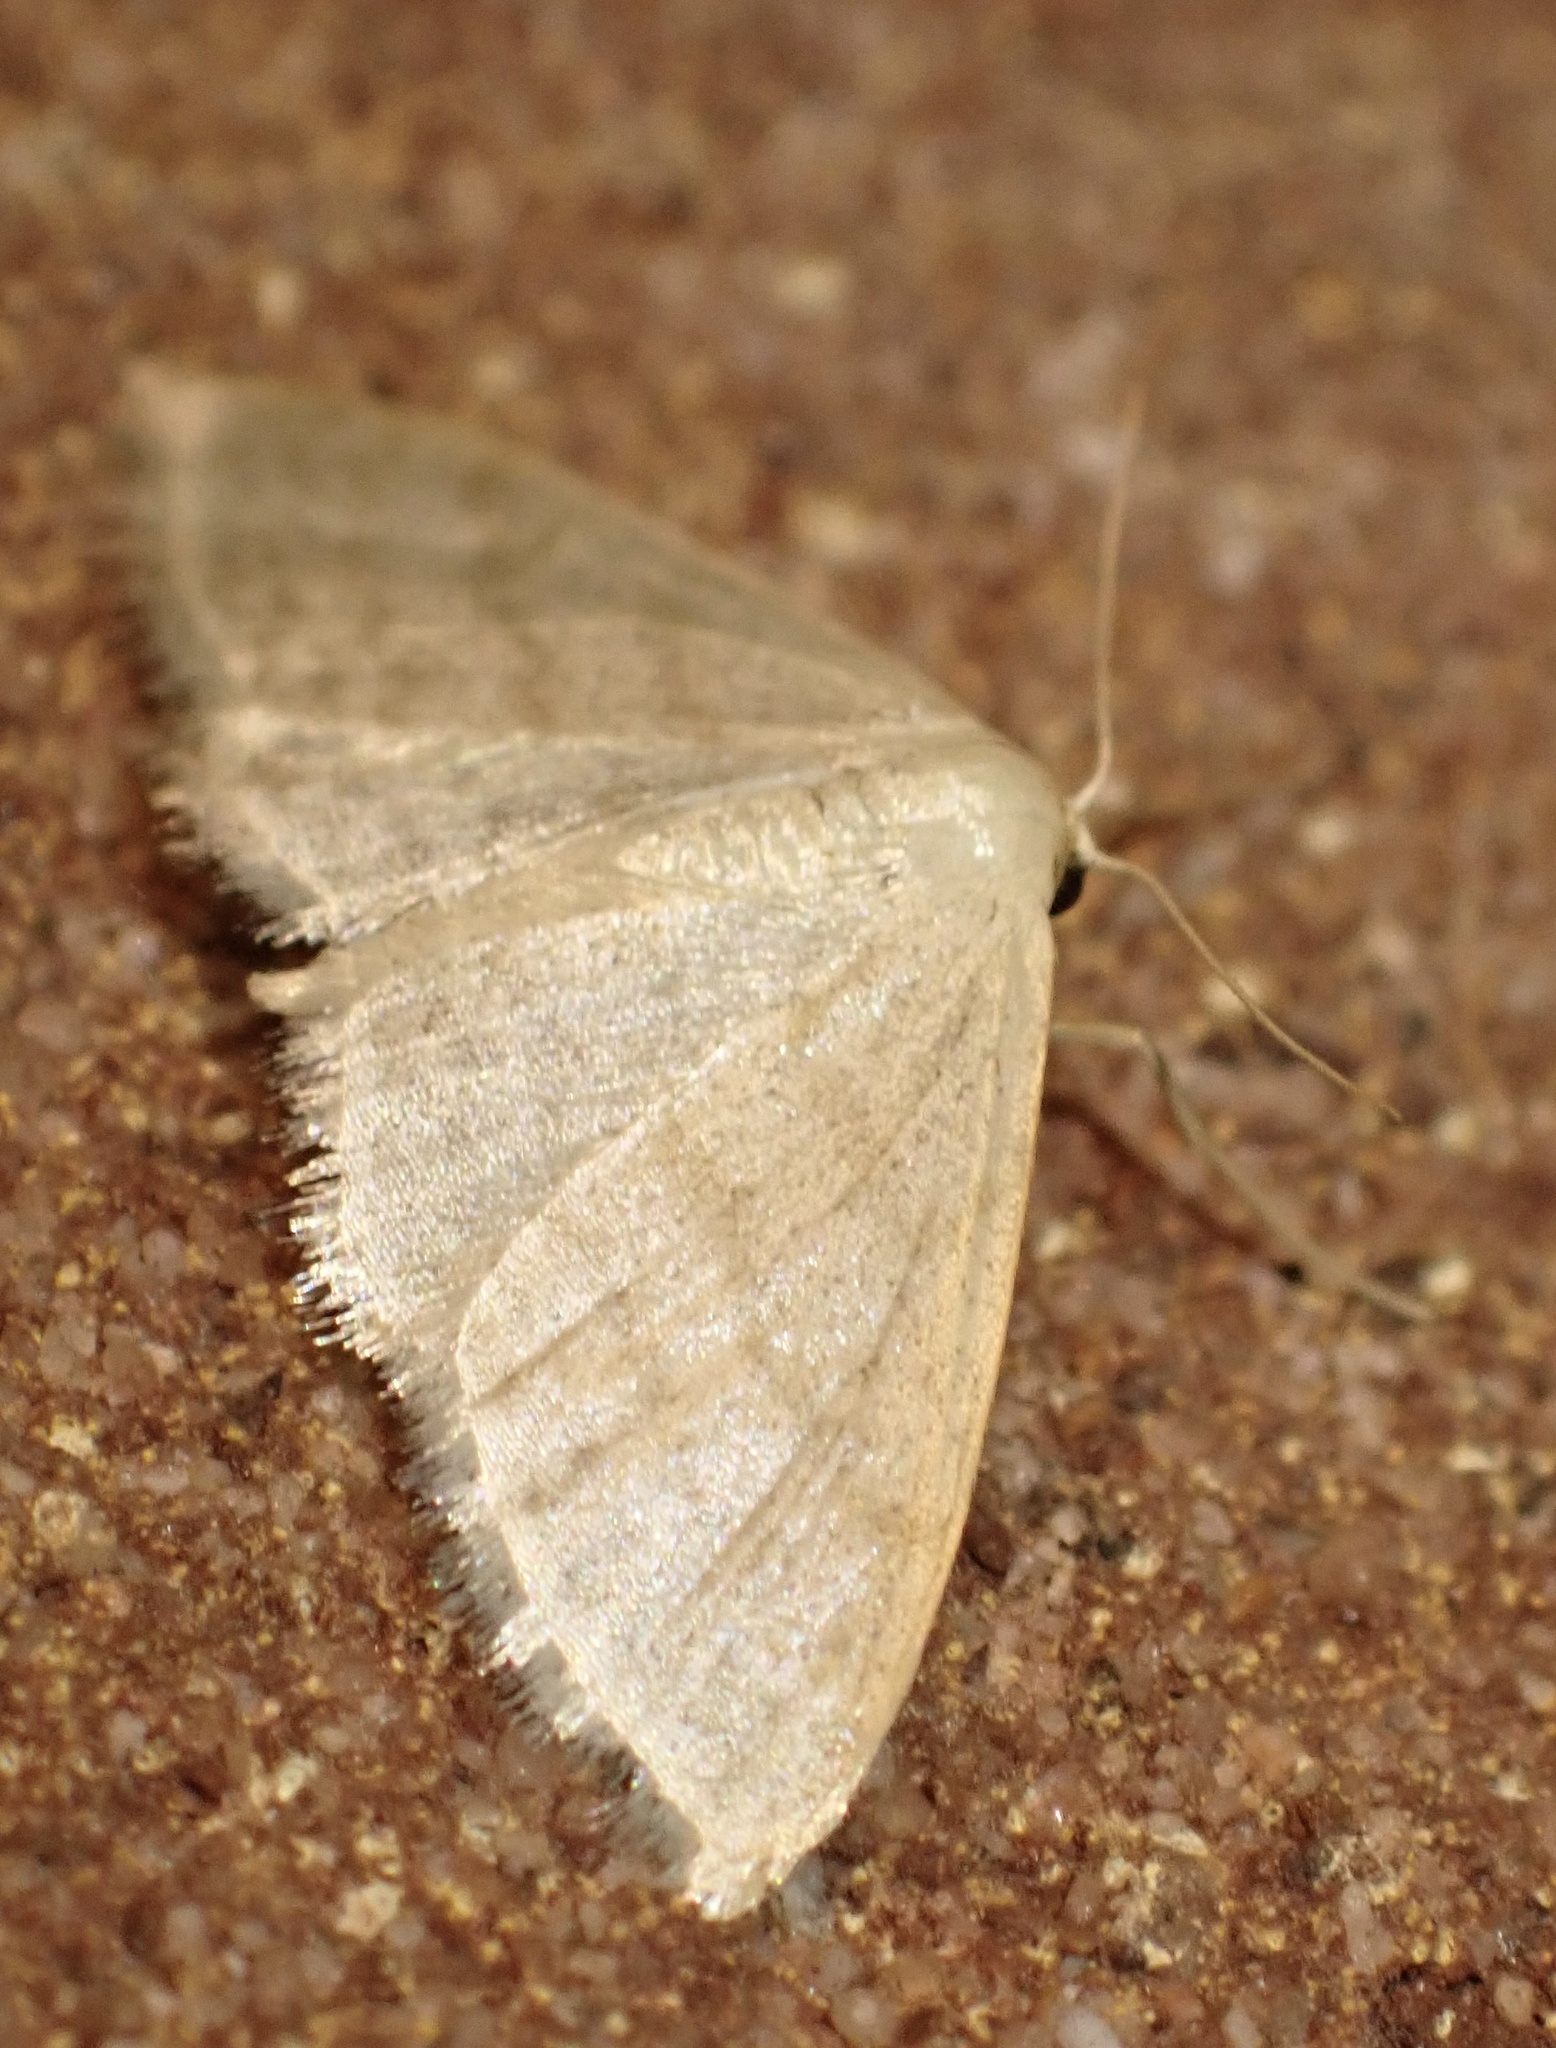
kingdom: Animalia
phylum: Arthropoda
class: Insecta
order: Lepidoptera
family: Geometridae
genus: Idaea
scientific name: Idaea subsericeata
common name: Satin wave
